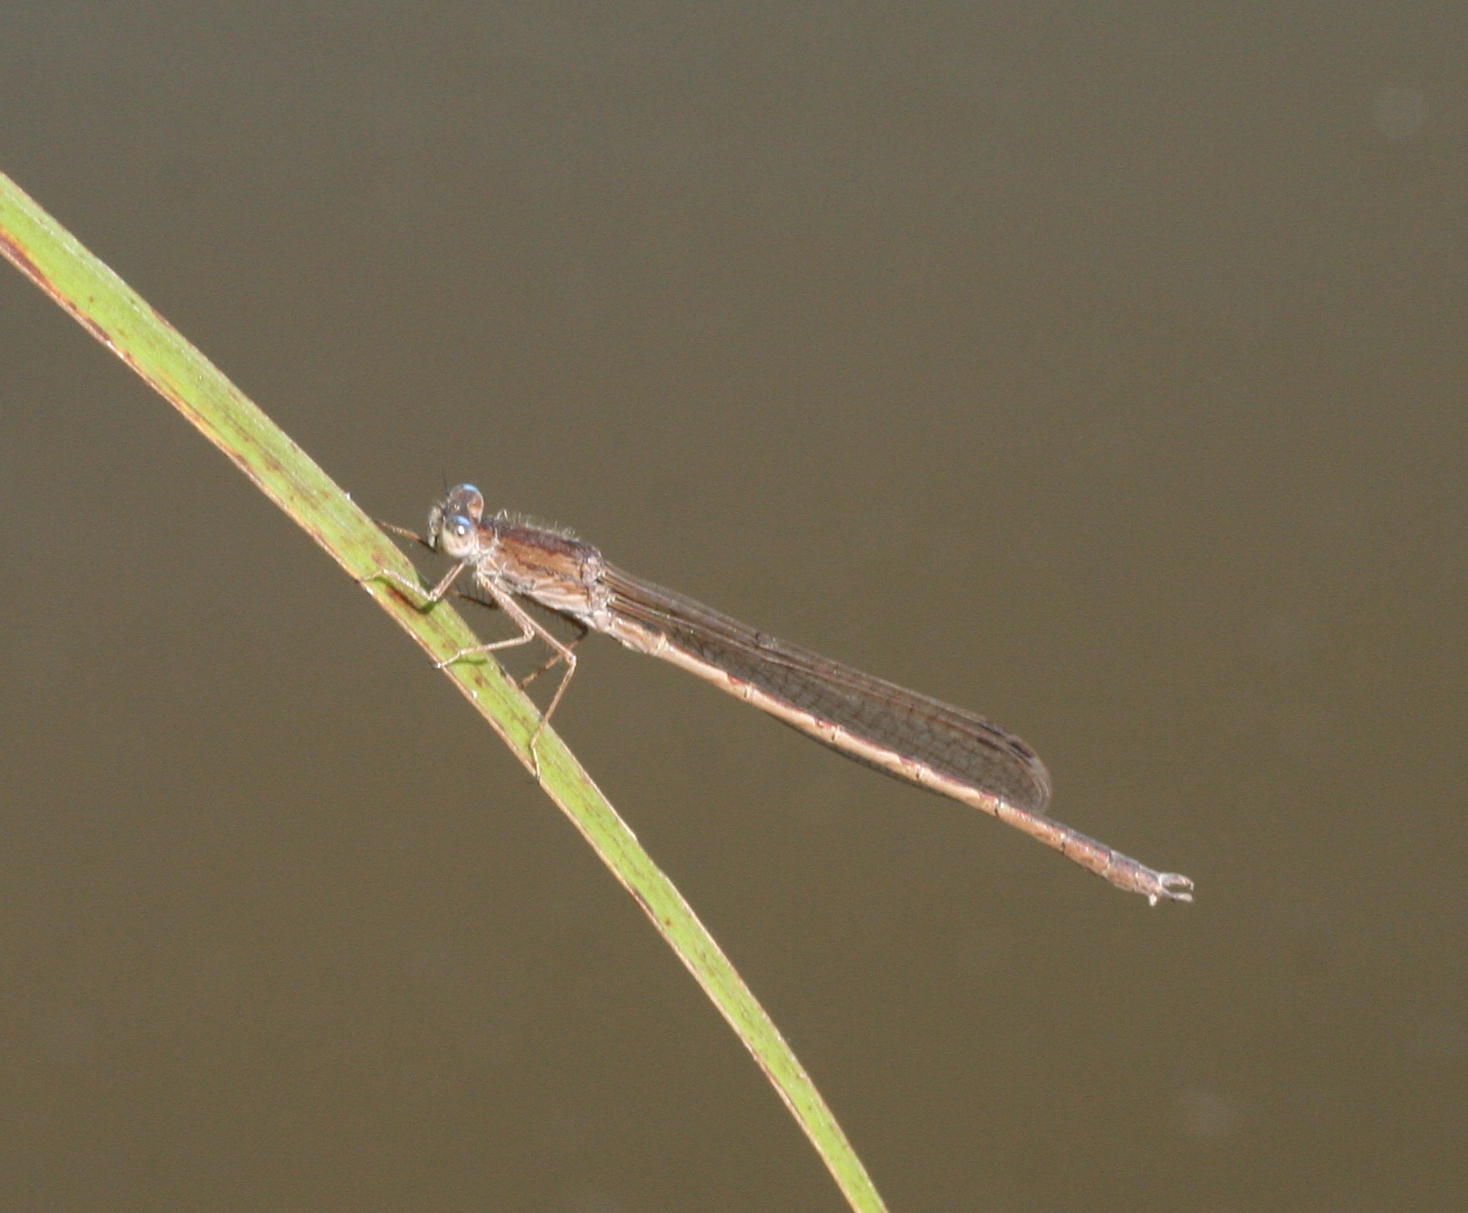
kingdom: Animalia
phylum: Arthropoda
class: Insecta
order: Odonata
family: Lestidae
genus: Sympecma
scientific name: Sympecma paedisca
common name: Siberian winter damsel
